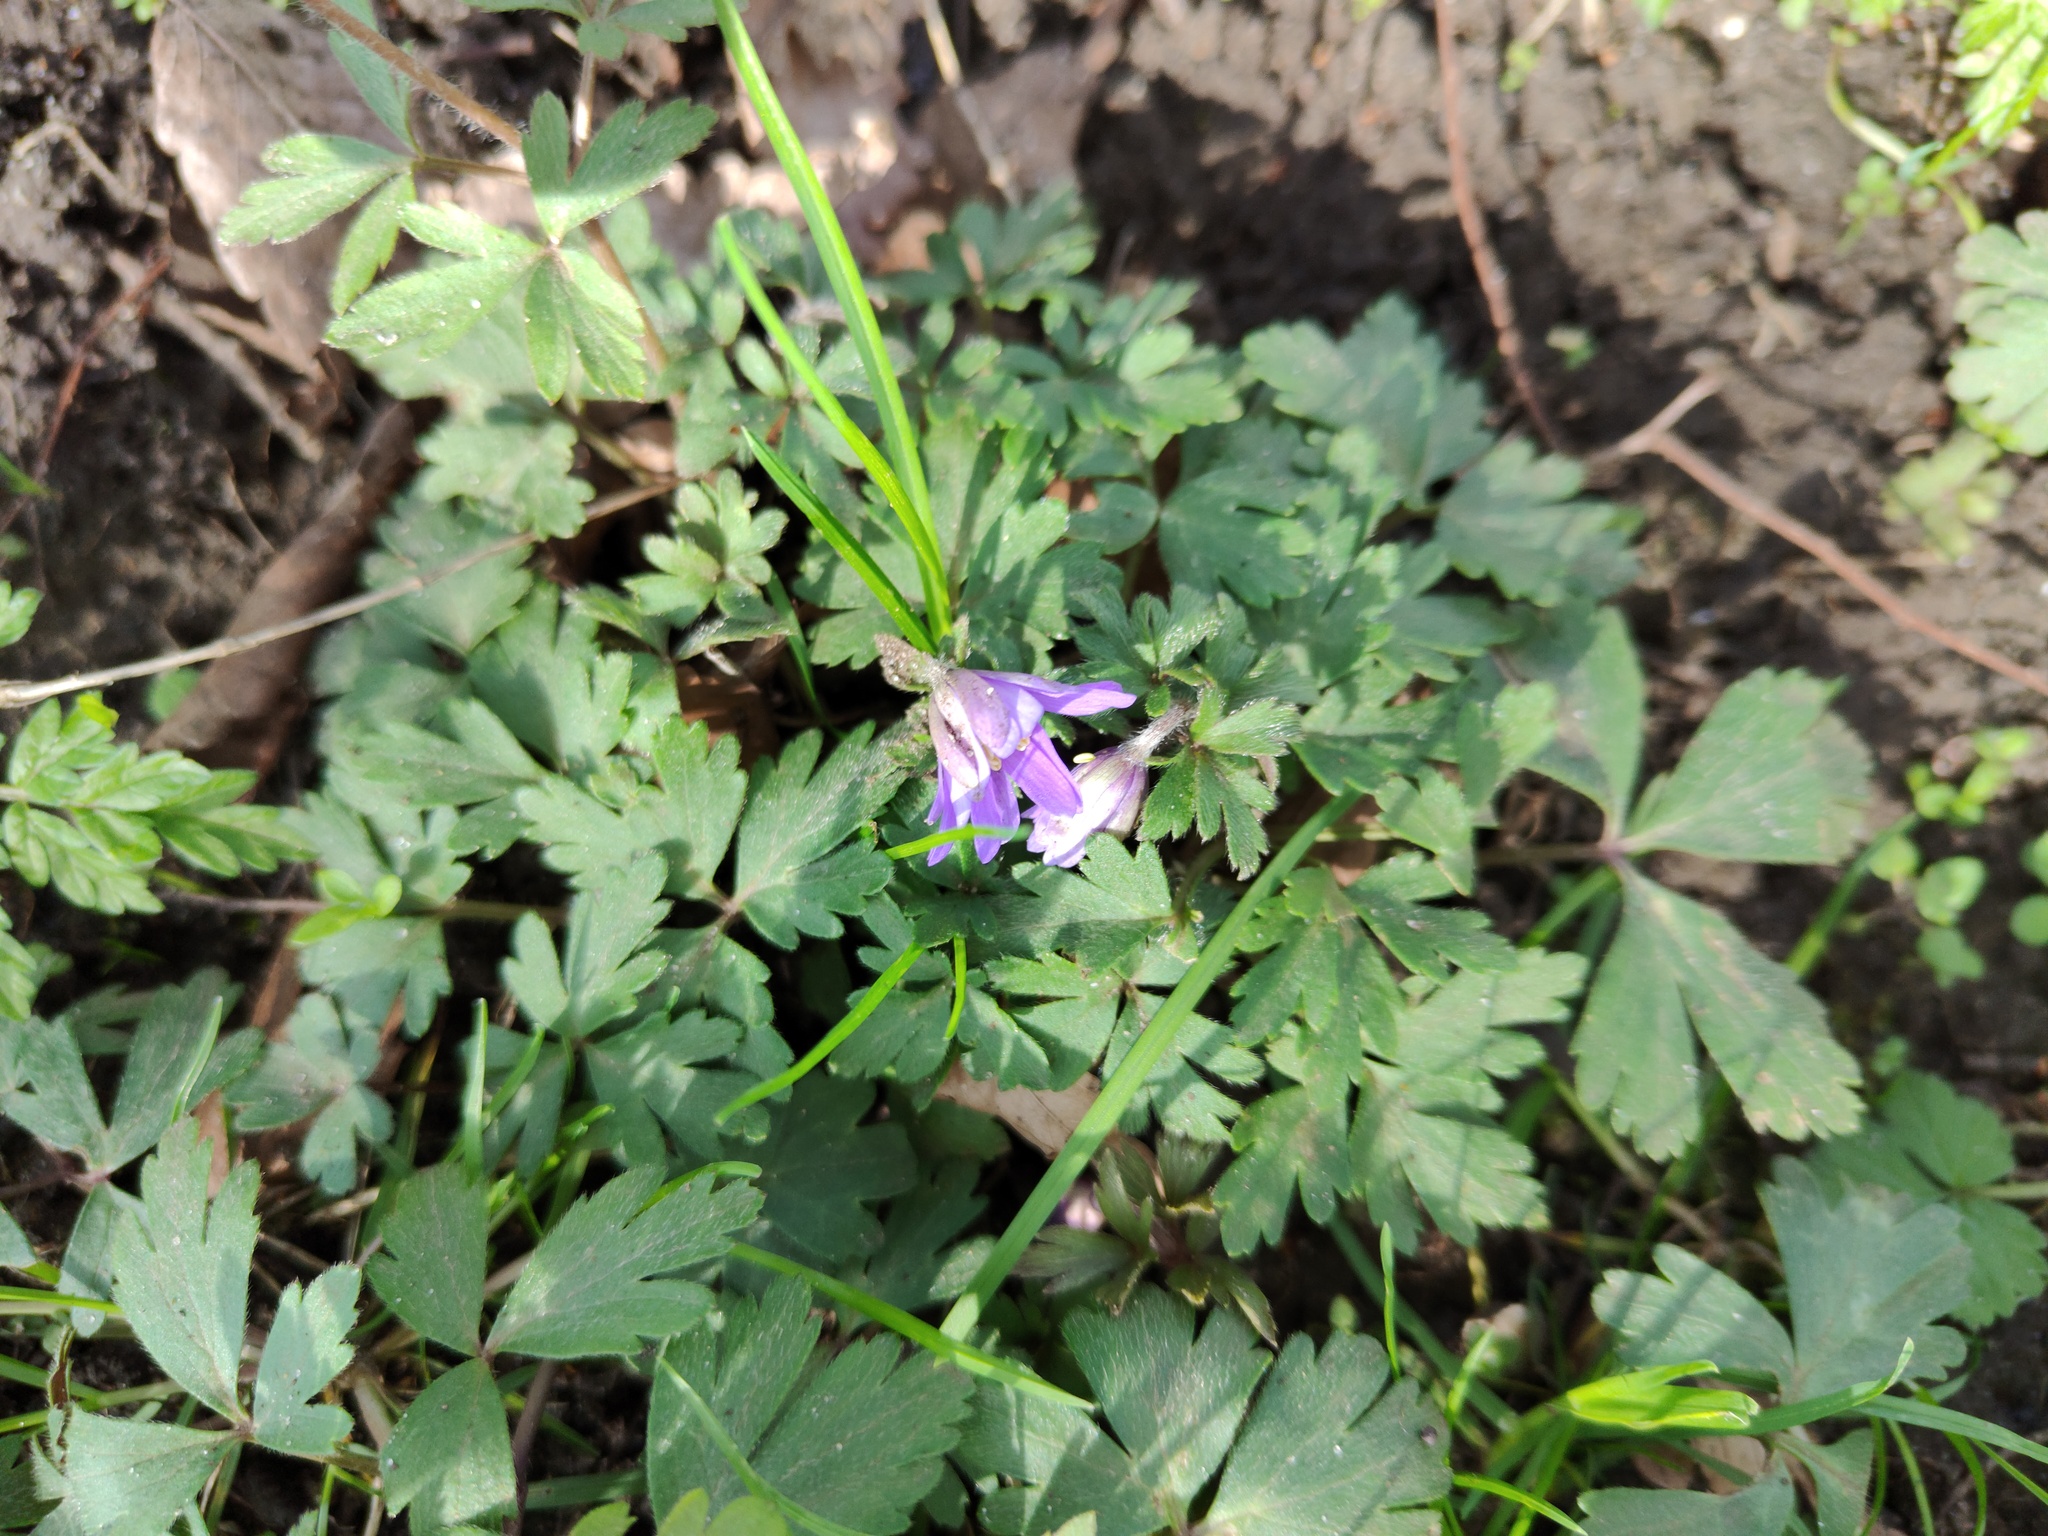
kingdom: Plantae
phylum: Tracheophyta
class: Magnoliopsida
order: Ranunculales
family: Ranunculaceae
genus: Anemone
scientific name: Anemone blanda
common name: Balkan anemone
